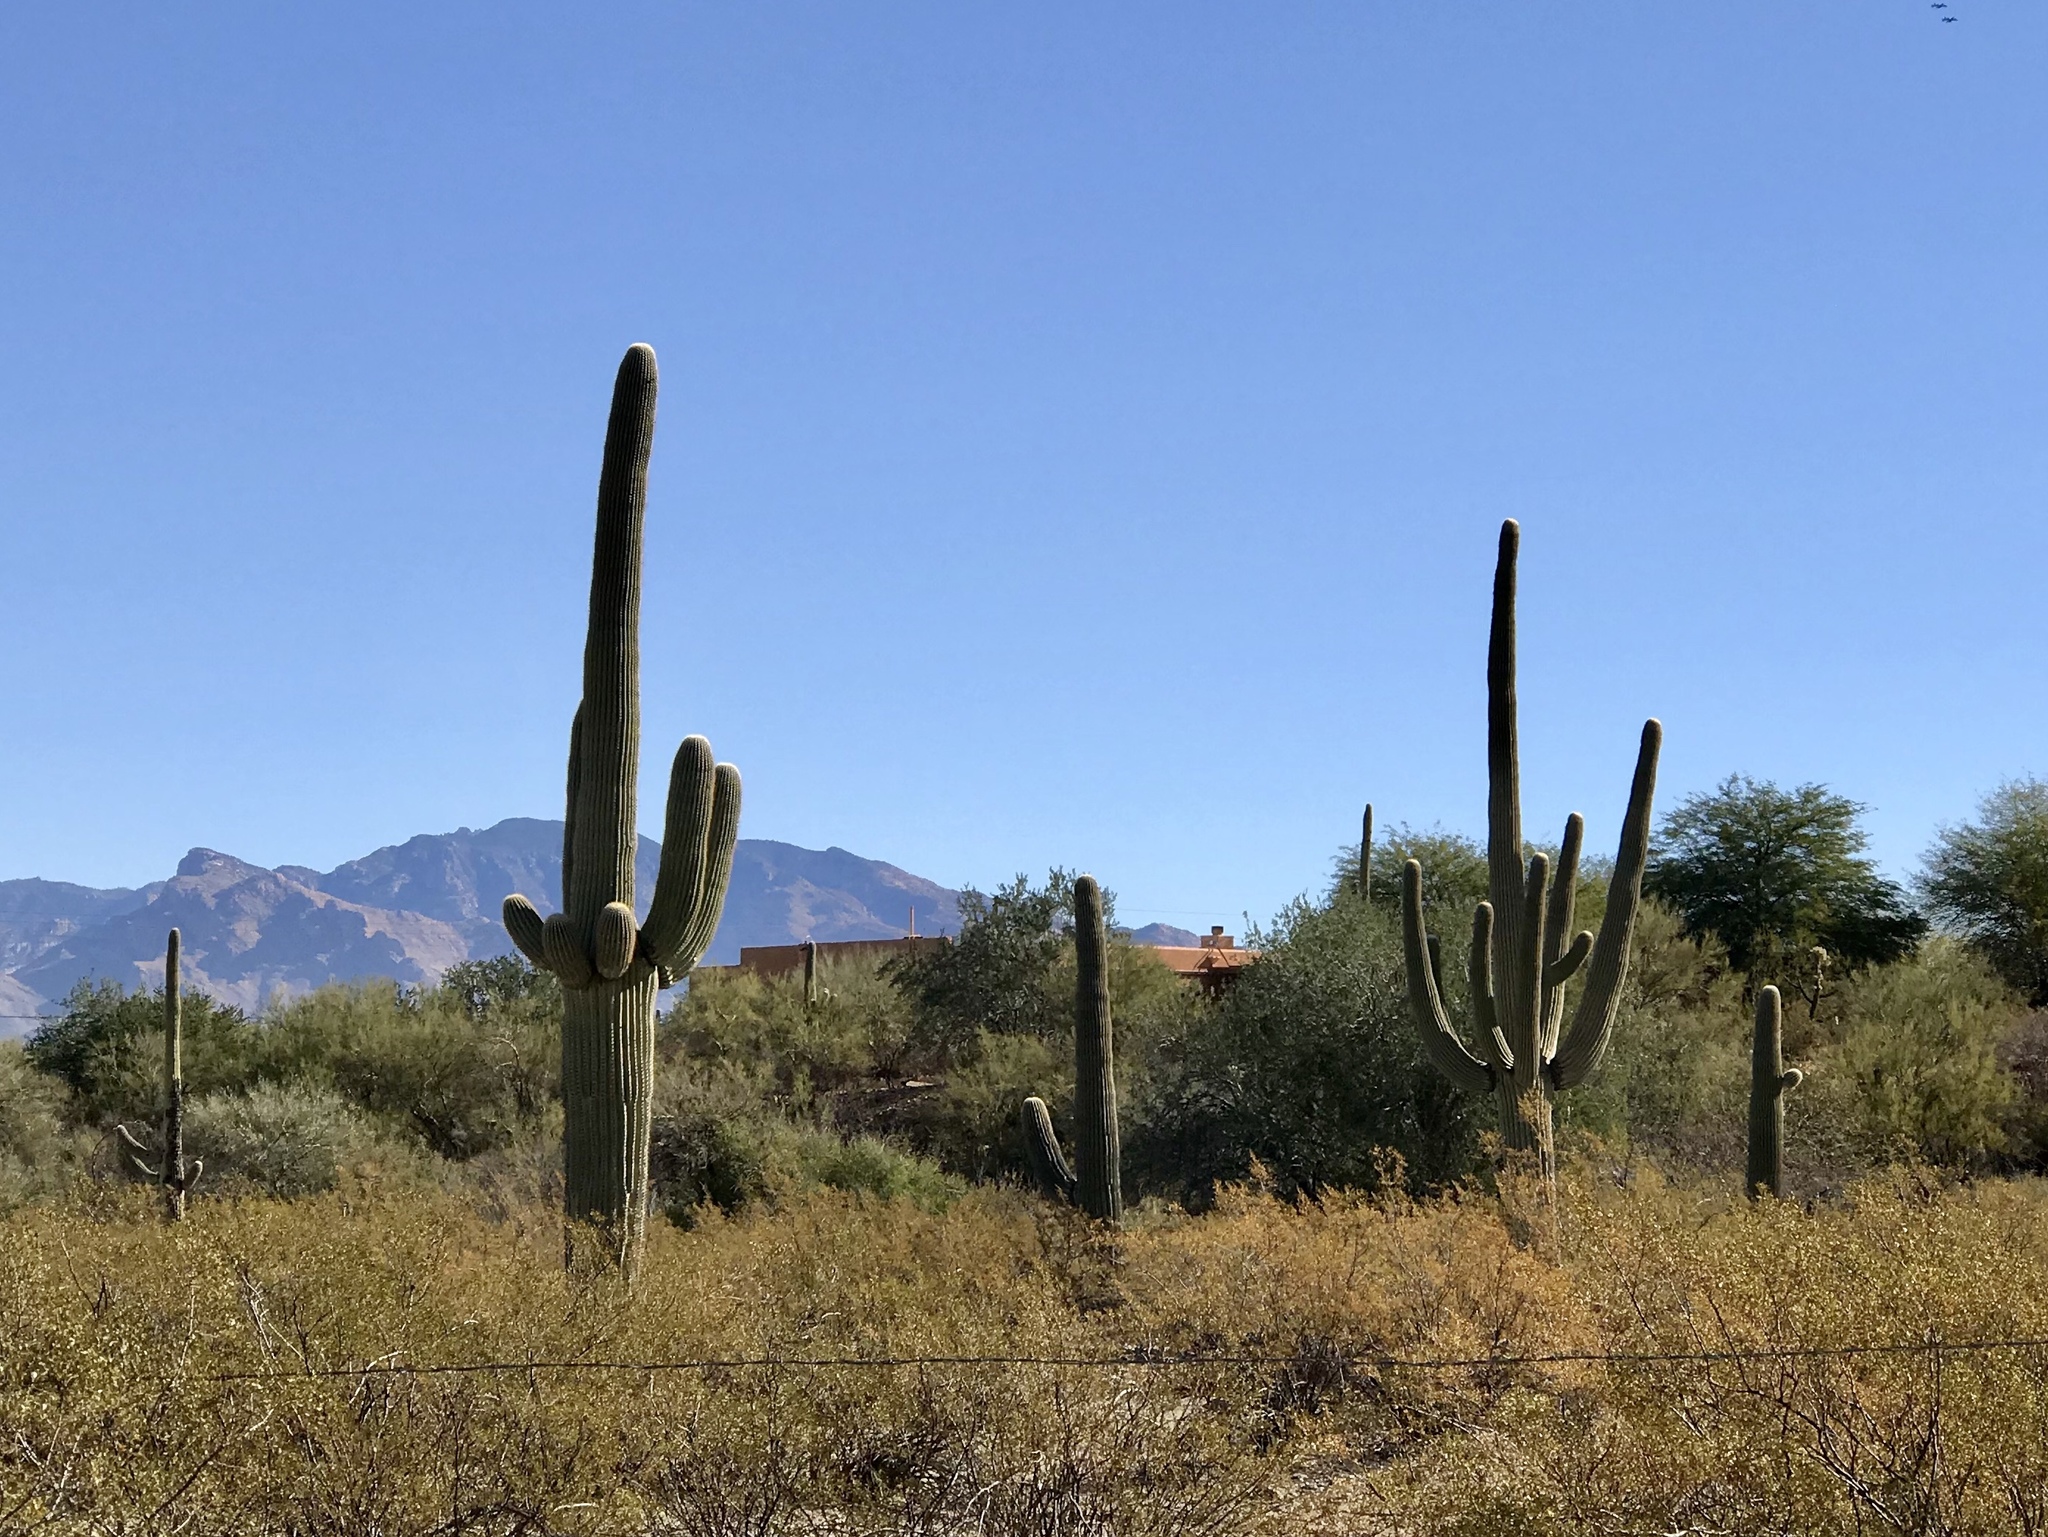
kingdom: Plantae
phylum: Tracheophyta
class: Magnoliopsida
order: Caryophyllales
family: Cactaceae
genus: Carnegiea
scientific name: Carnegiea gigantea
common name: Saguaro
